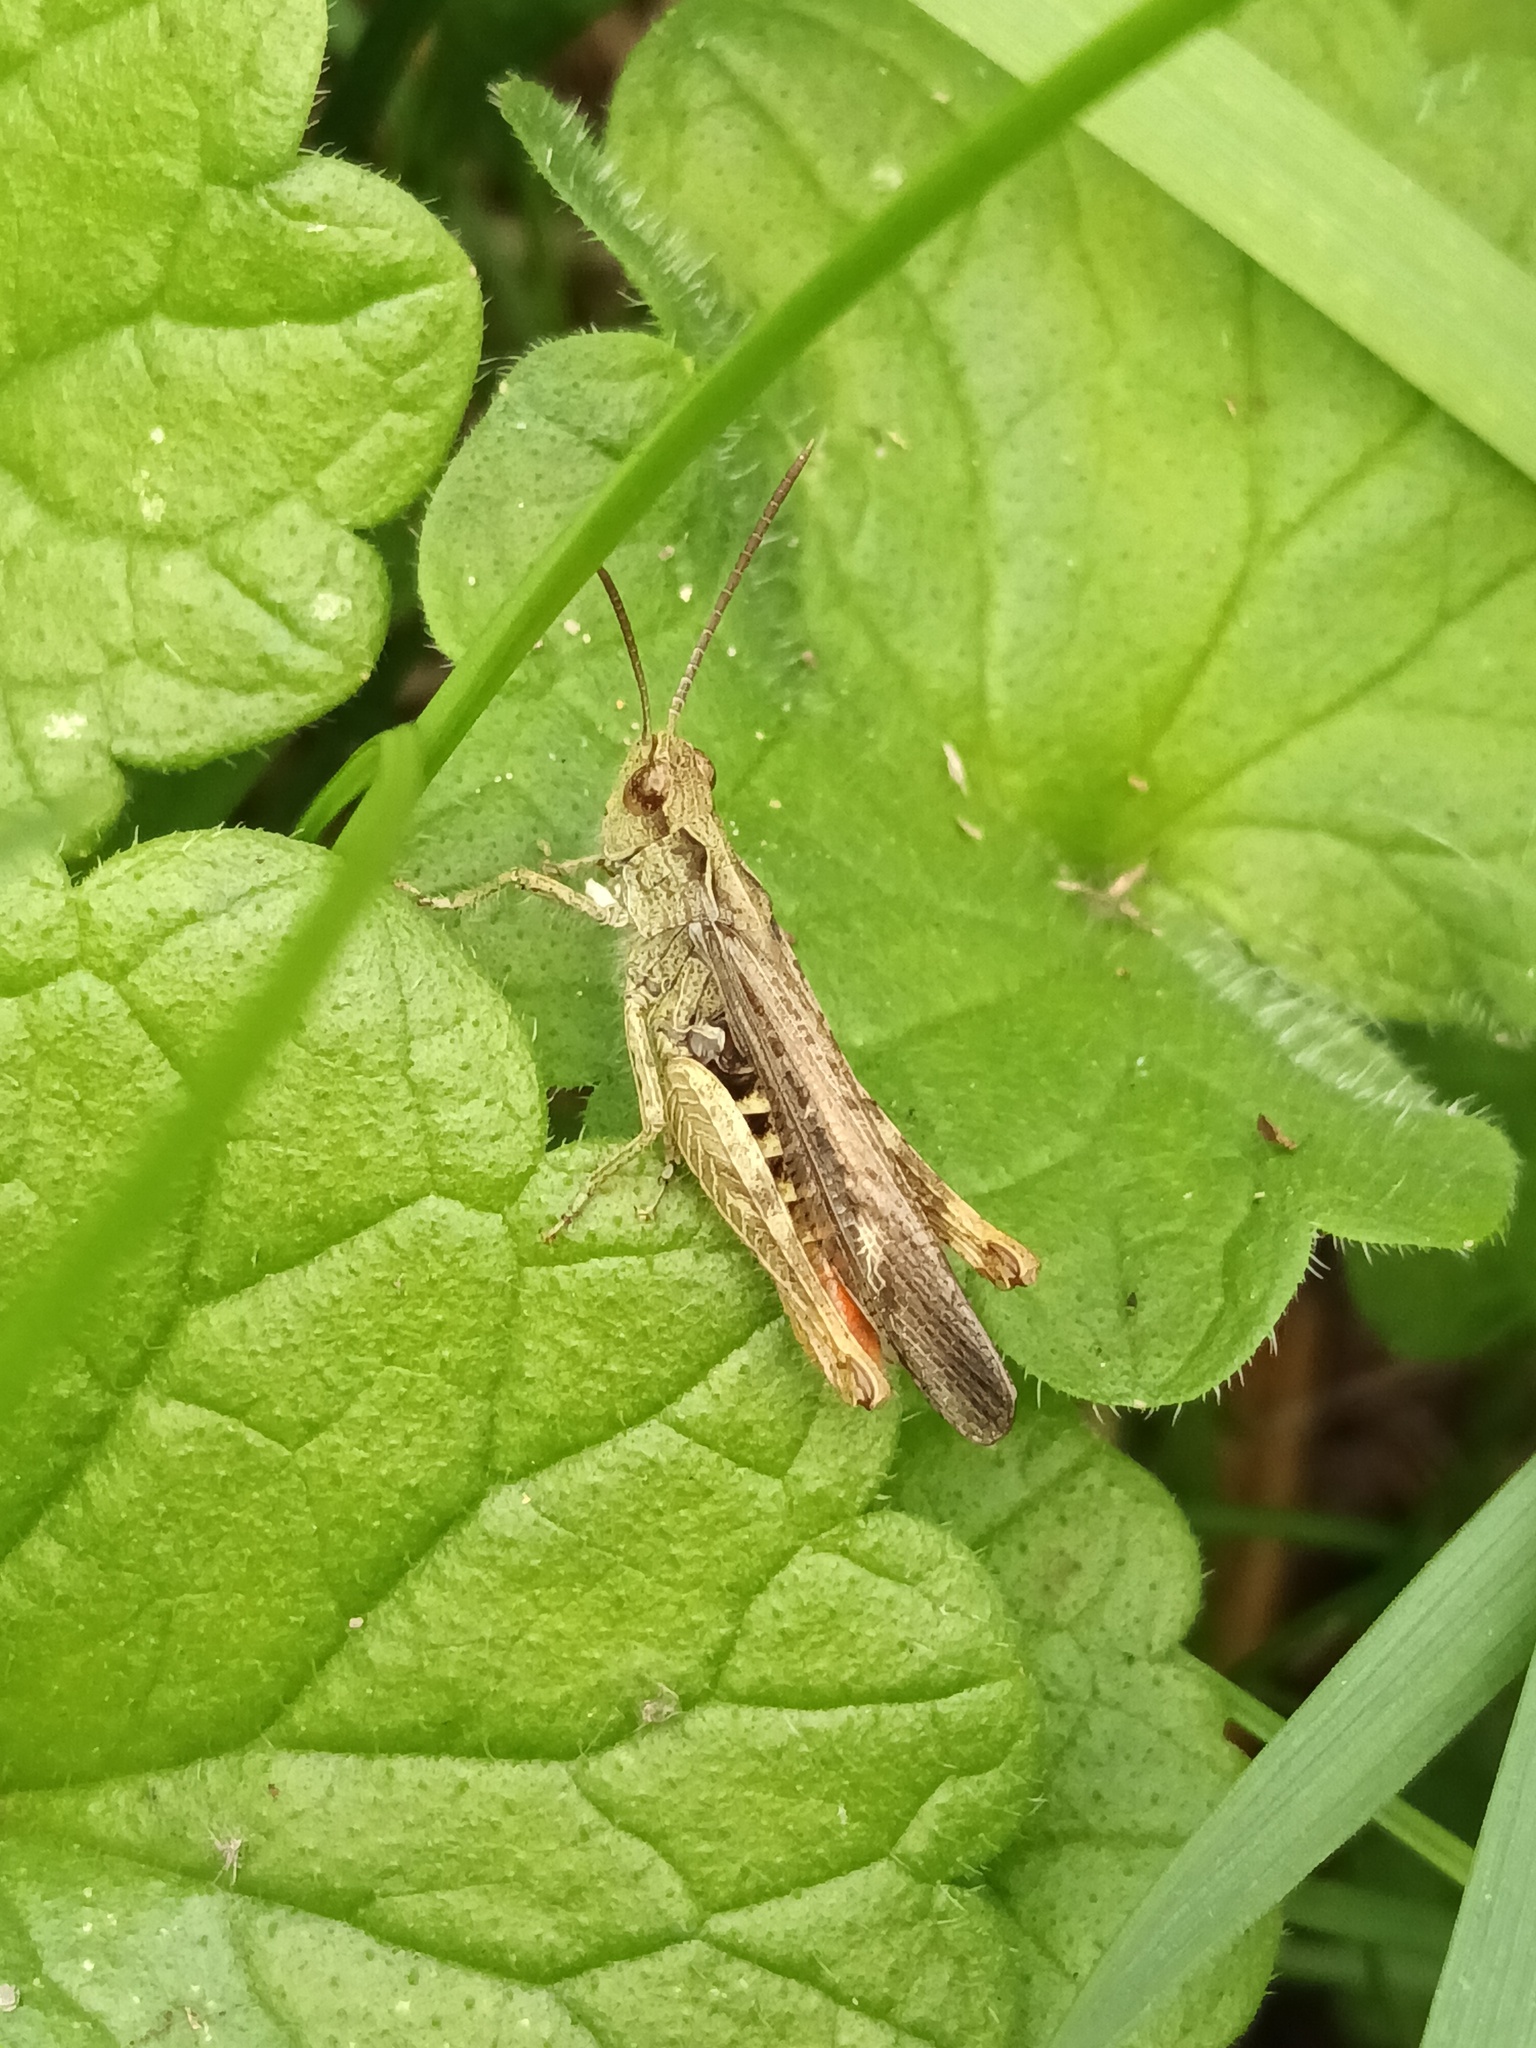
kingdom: Animalia
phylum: Arthropoda
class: Insecta
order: Orthoptera
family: Acrididae
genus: Chorthippus
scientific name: Chorthippus brunneus
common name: Field grasshopper
